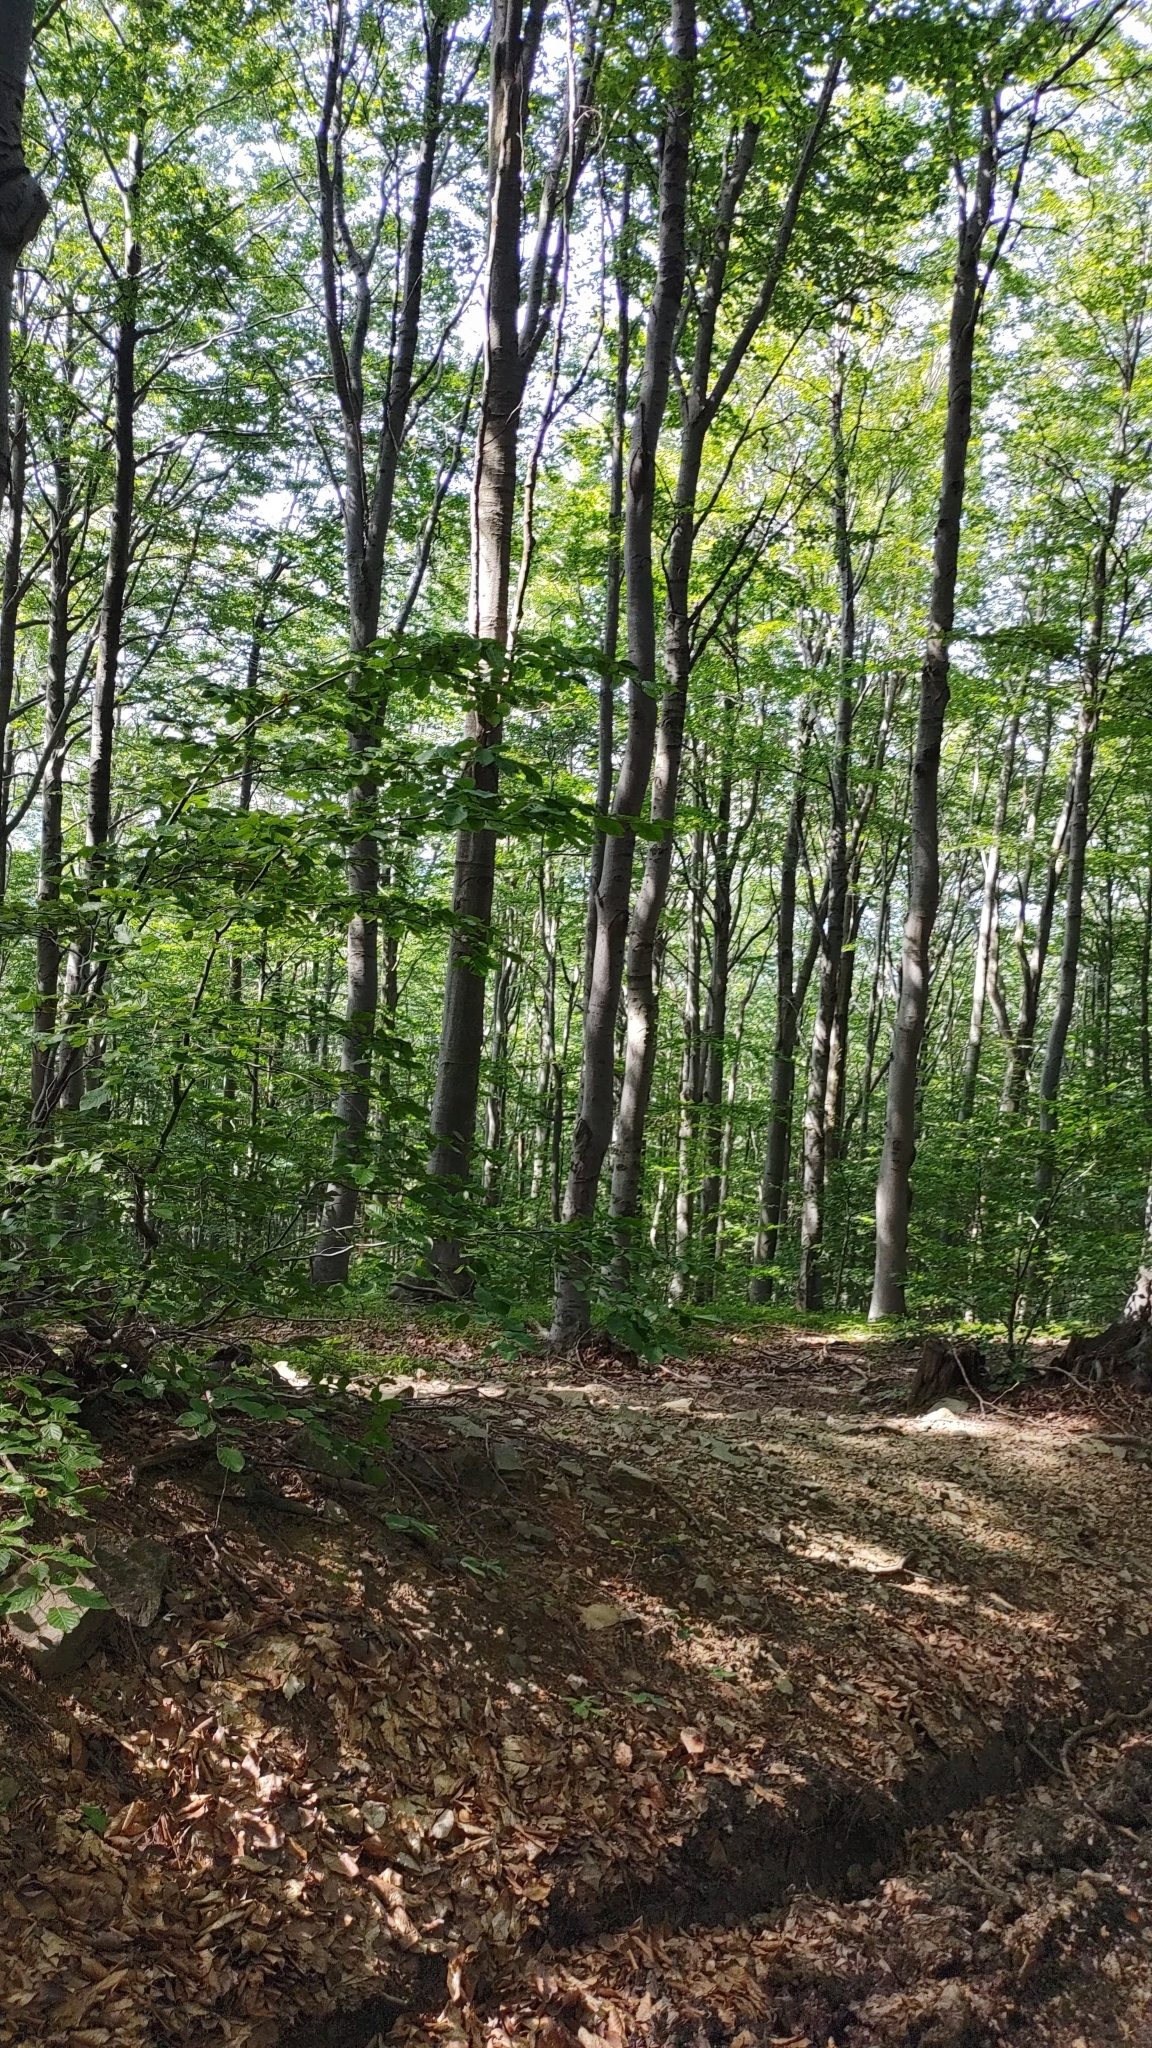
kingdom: Animalia
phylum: Chordata
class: Aves
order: Passeriformes
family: Sittidae
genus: Sitta
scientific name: Sitta europaea
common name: Eurasian nuthatch
